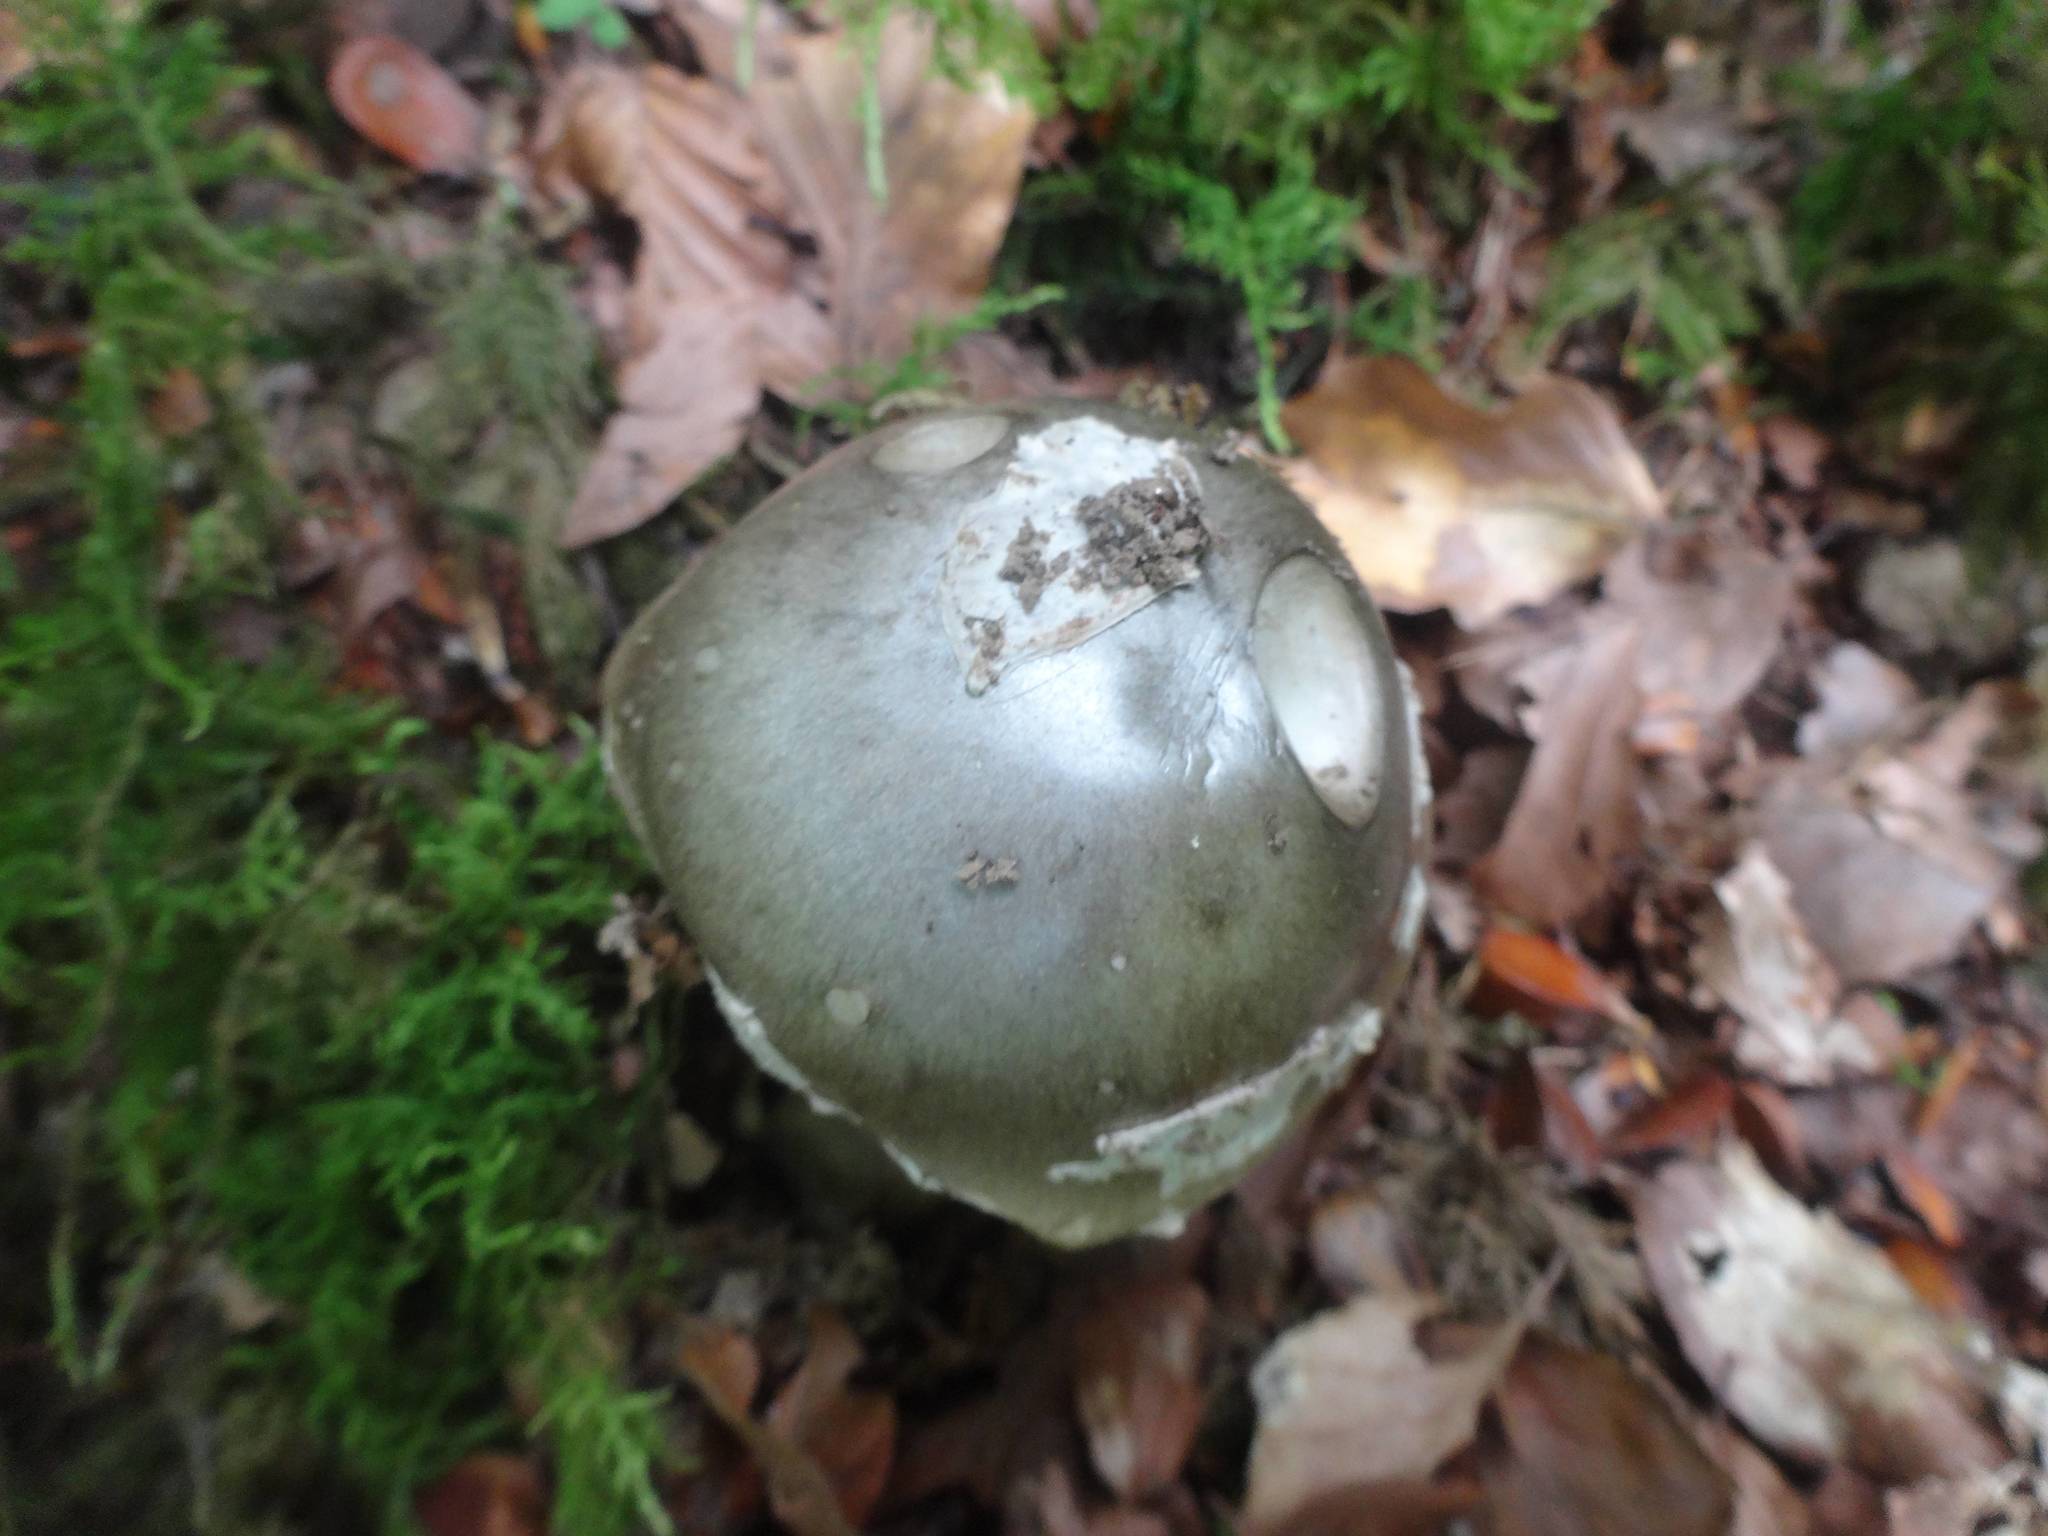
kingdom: Fungi
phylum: Basidiomycota
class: Agaricomycetes
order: Agaricales
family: Amanitaceae
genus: Amanita
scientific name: Amanita phalloides
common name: Death cap
